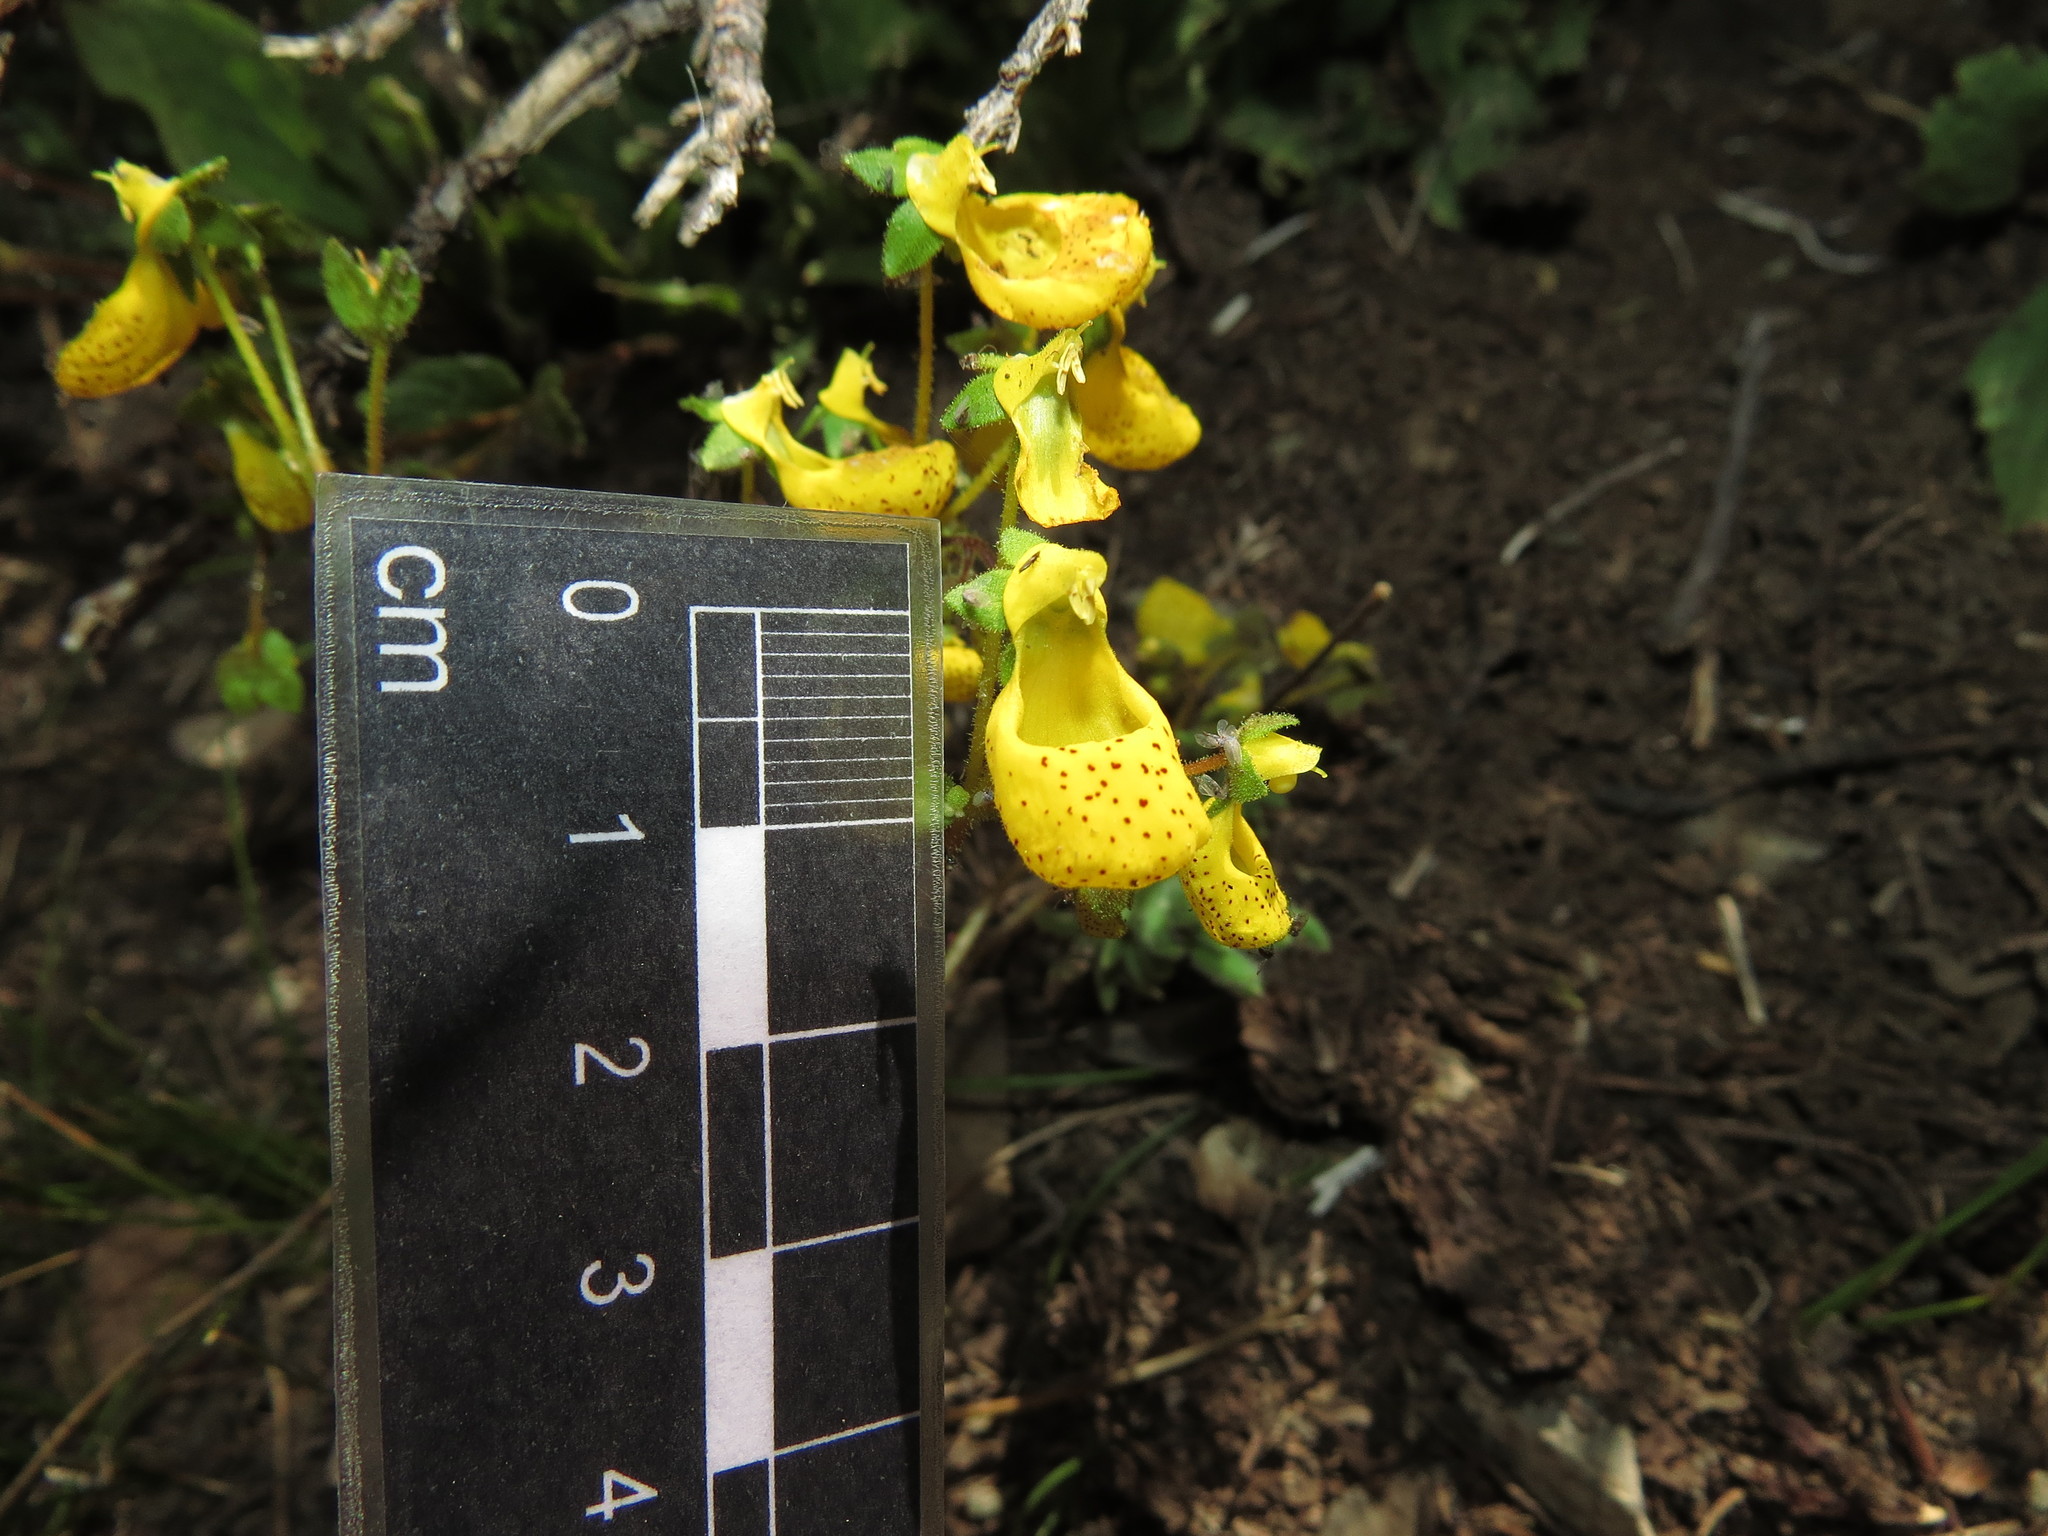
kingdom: Plantae
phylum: Tracheophyta
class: Magnoliopsida
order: Lamiales
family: Calceolariaceae
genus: Calceolaria
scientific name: Calceolaria corymbosa
